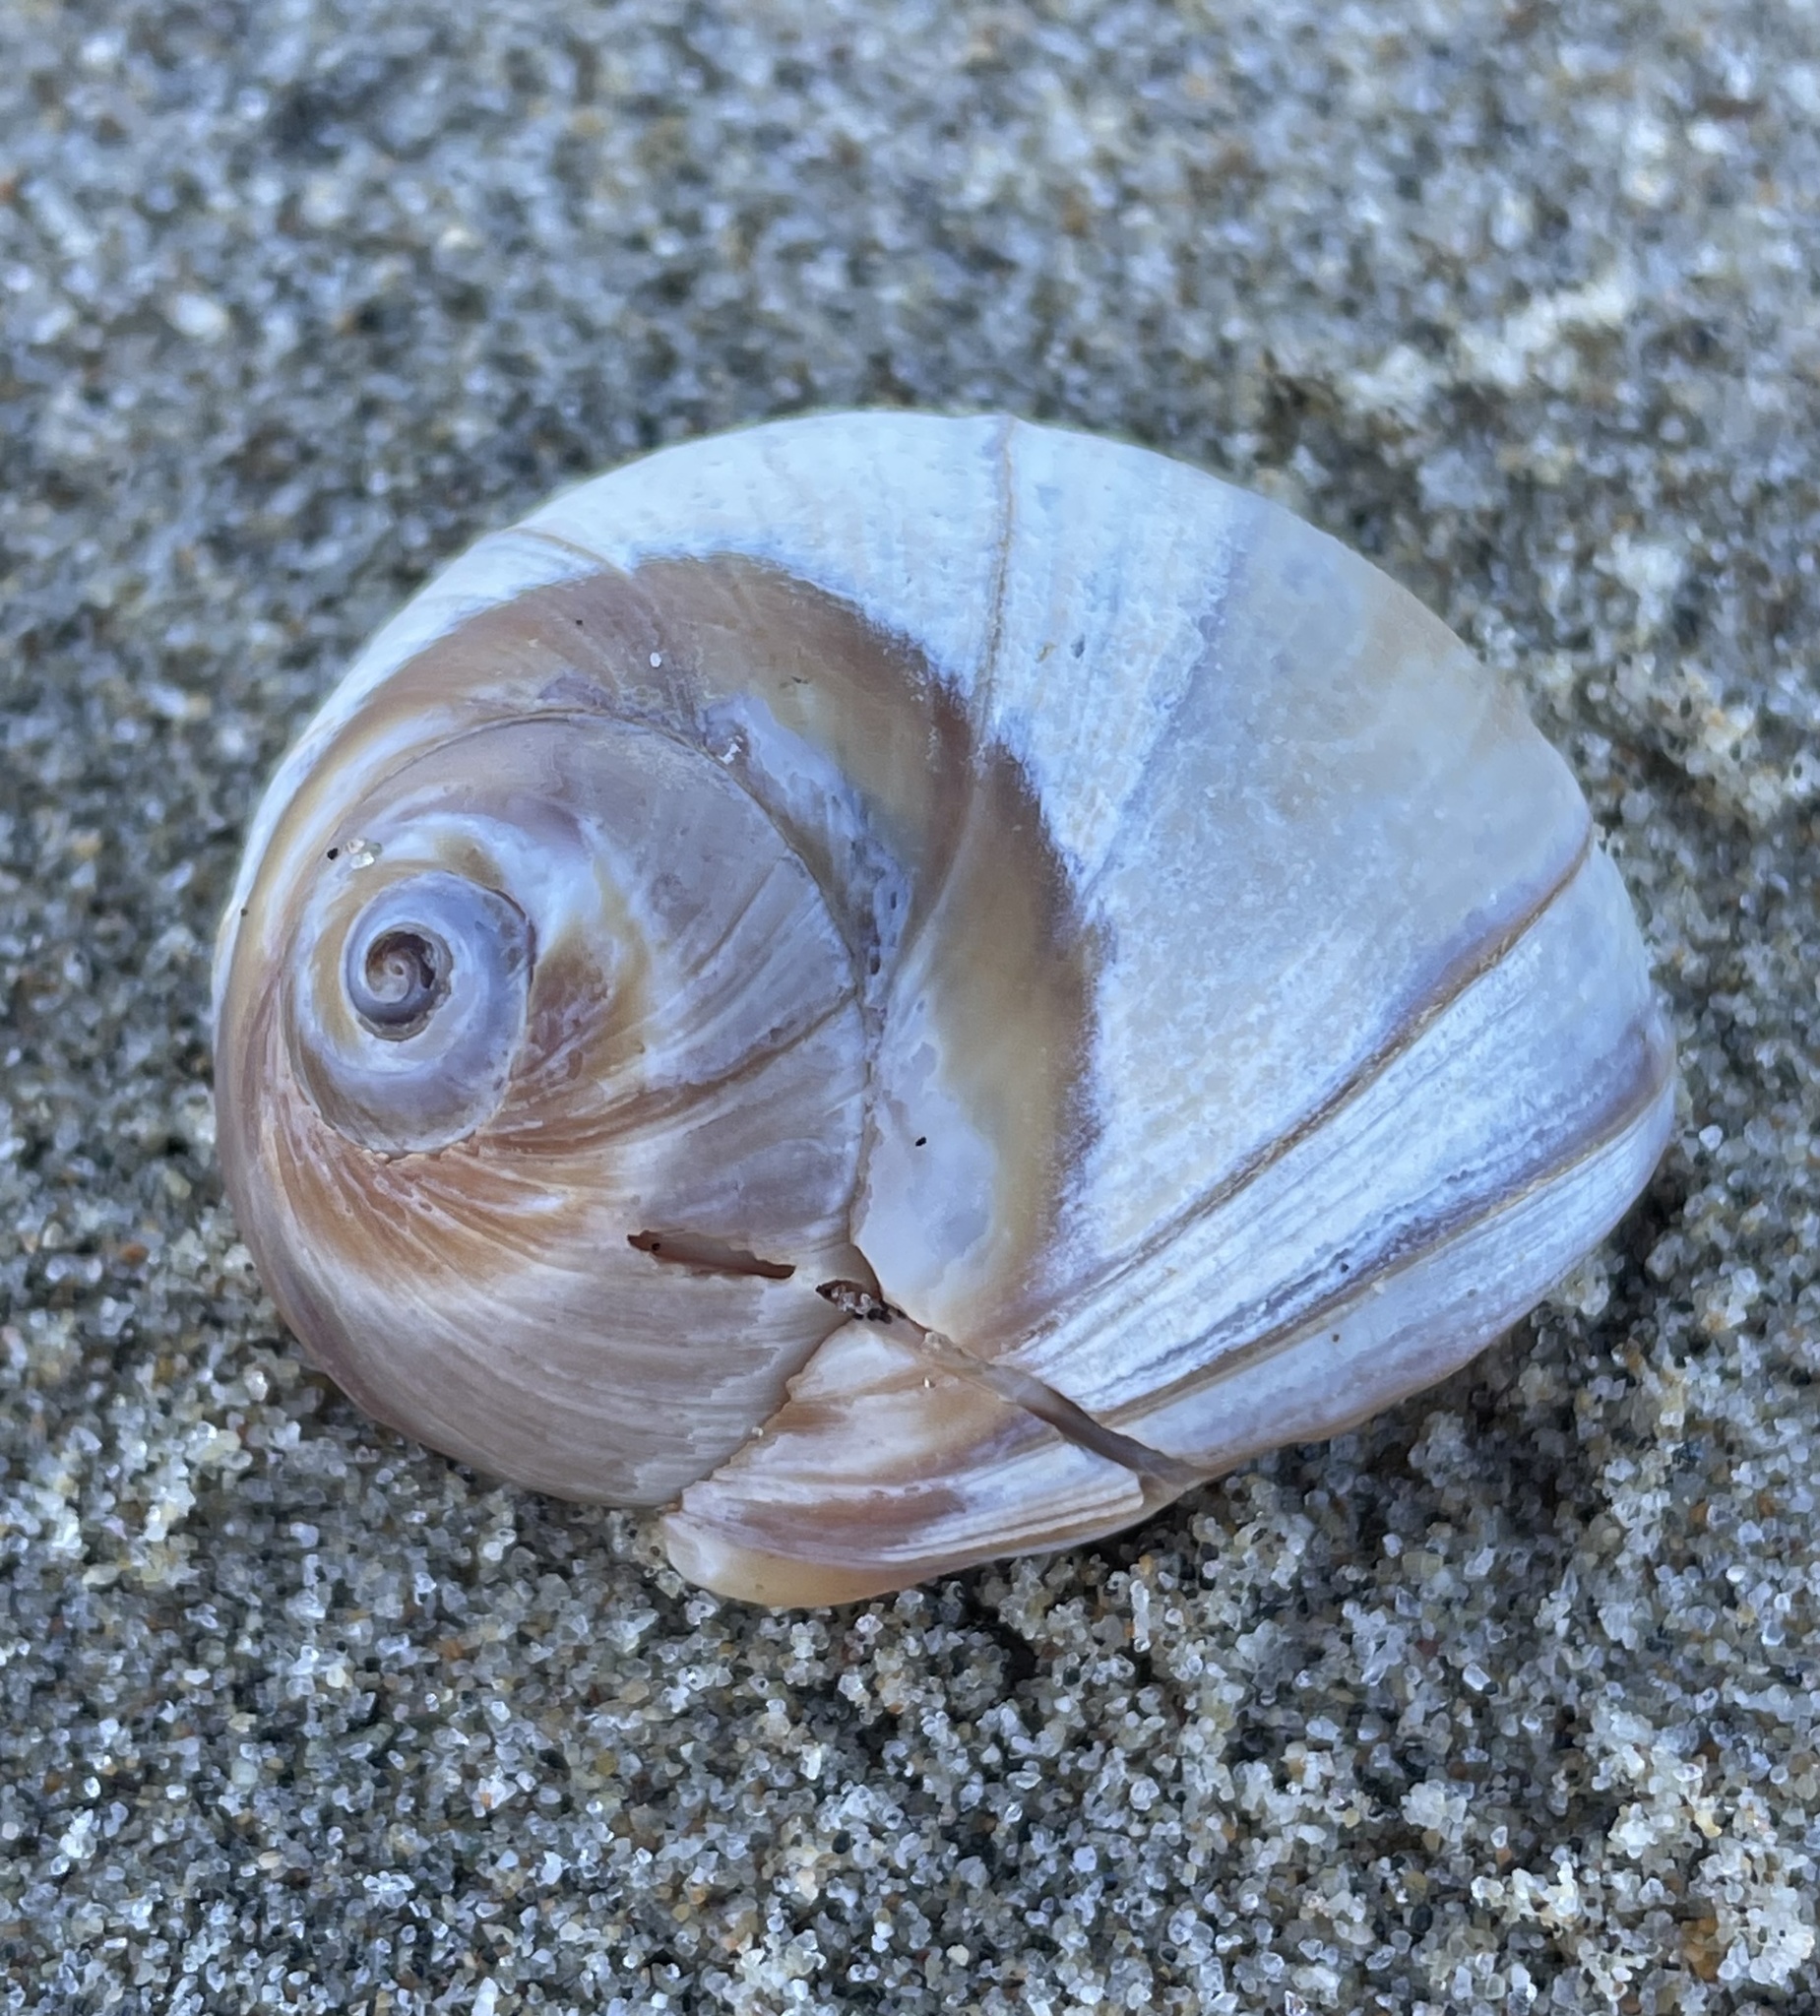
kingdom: Animalia
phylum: Mollusca
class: Gastropoda
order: Littorinimorpha
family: Naticidae
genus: Glossaulax
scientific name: Glossaulax reclusiana
